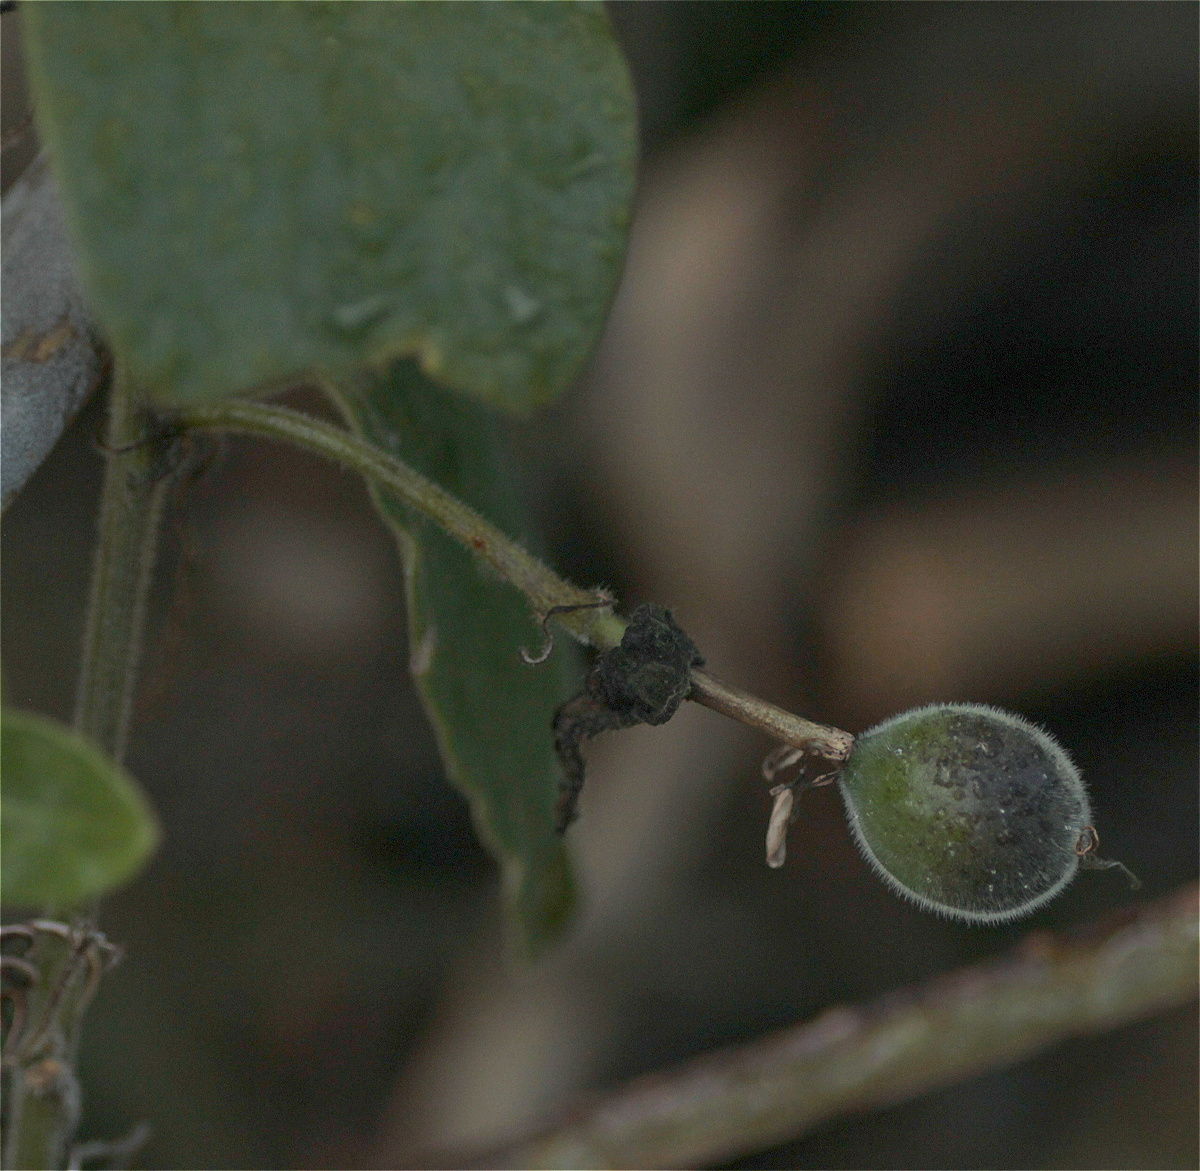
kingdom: Plantae
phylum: Tracheophyta
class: Magnoliopsida
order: Malpighiales
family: Passifloraceae
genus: Passiflora
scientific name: Passiflora bogotensis
